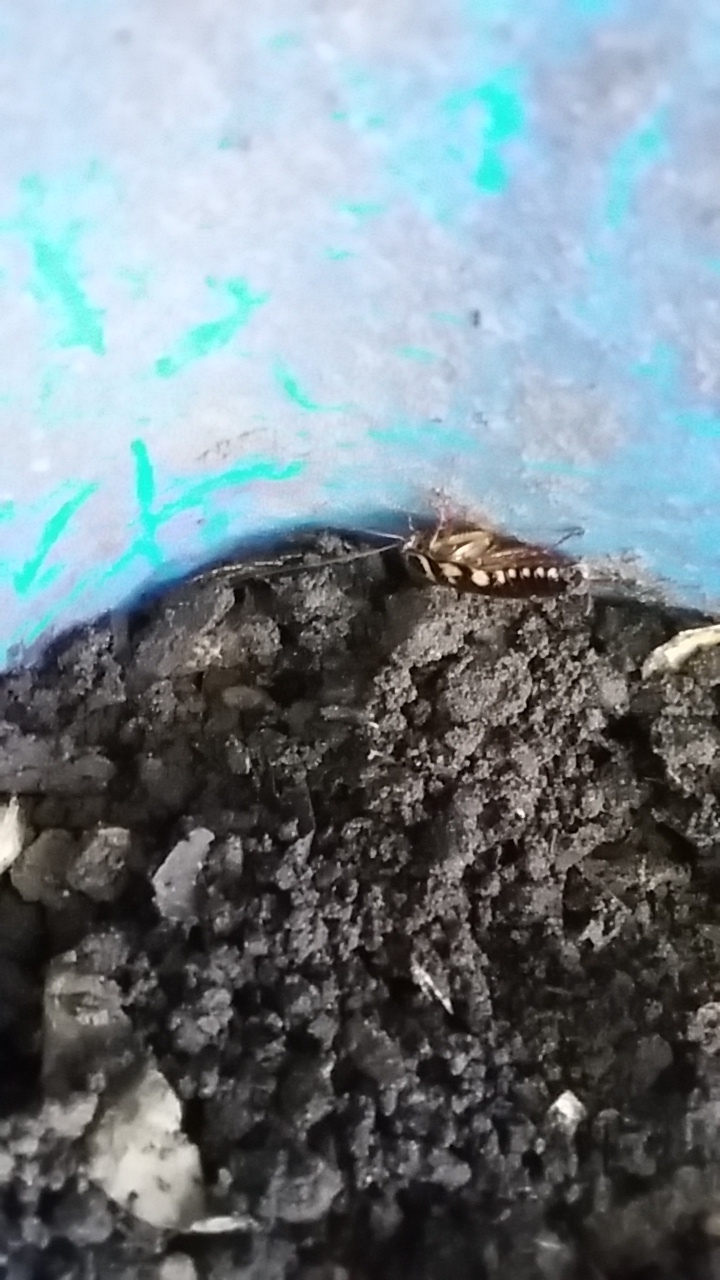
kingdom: Animalia
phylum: Arthropoda
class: Insecta
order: Blattodea
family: Blattidae
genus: Periplaneta
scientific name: Periplaneta australasiae
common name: Australian cockroach
